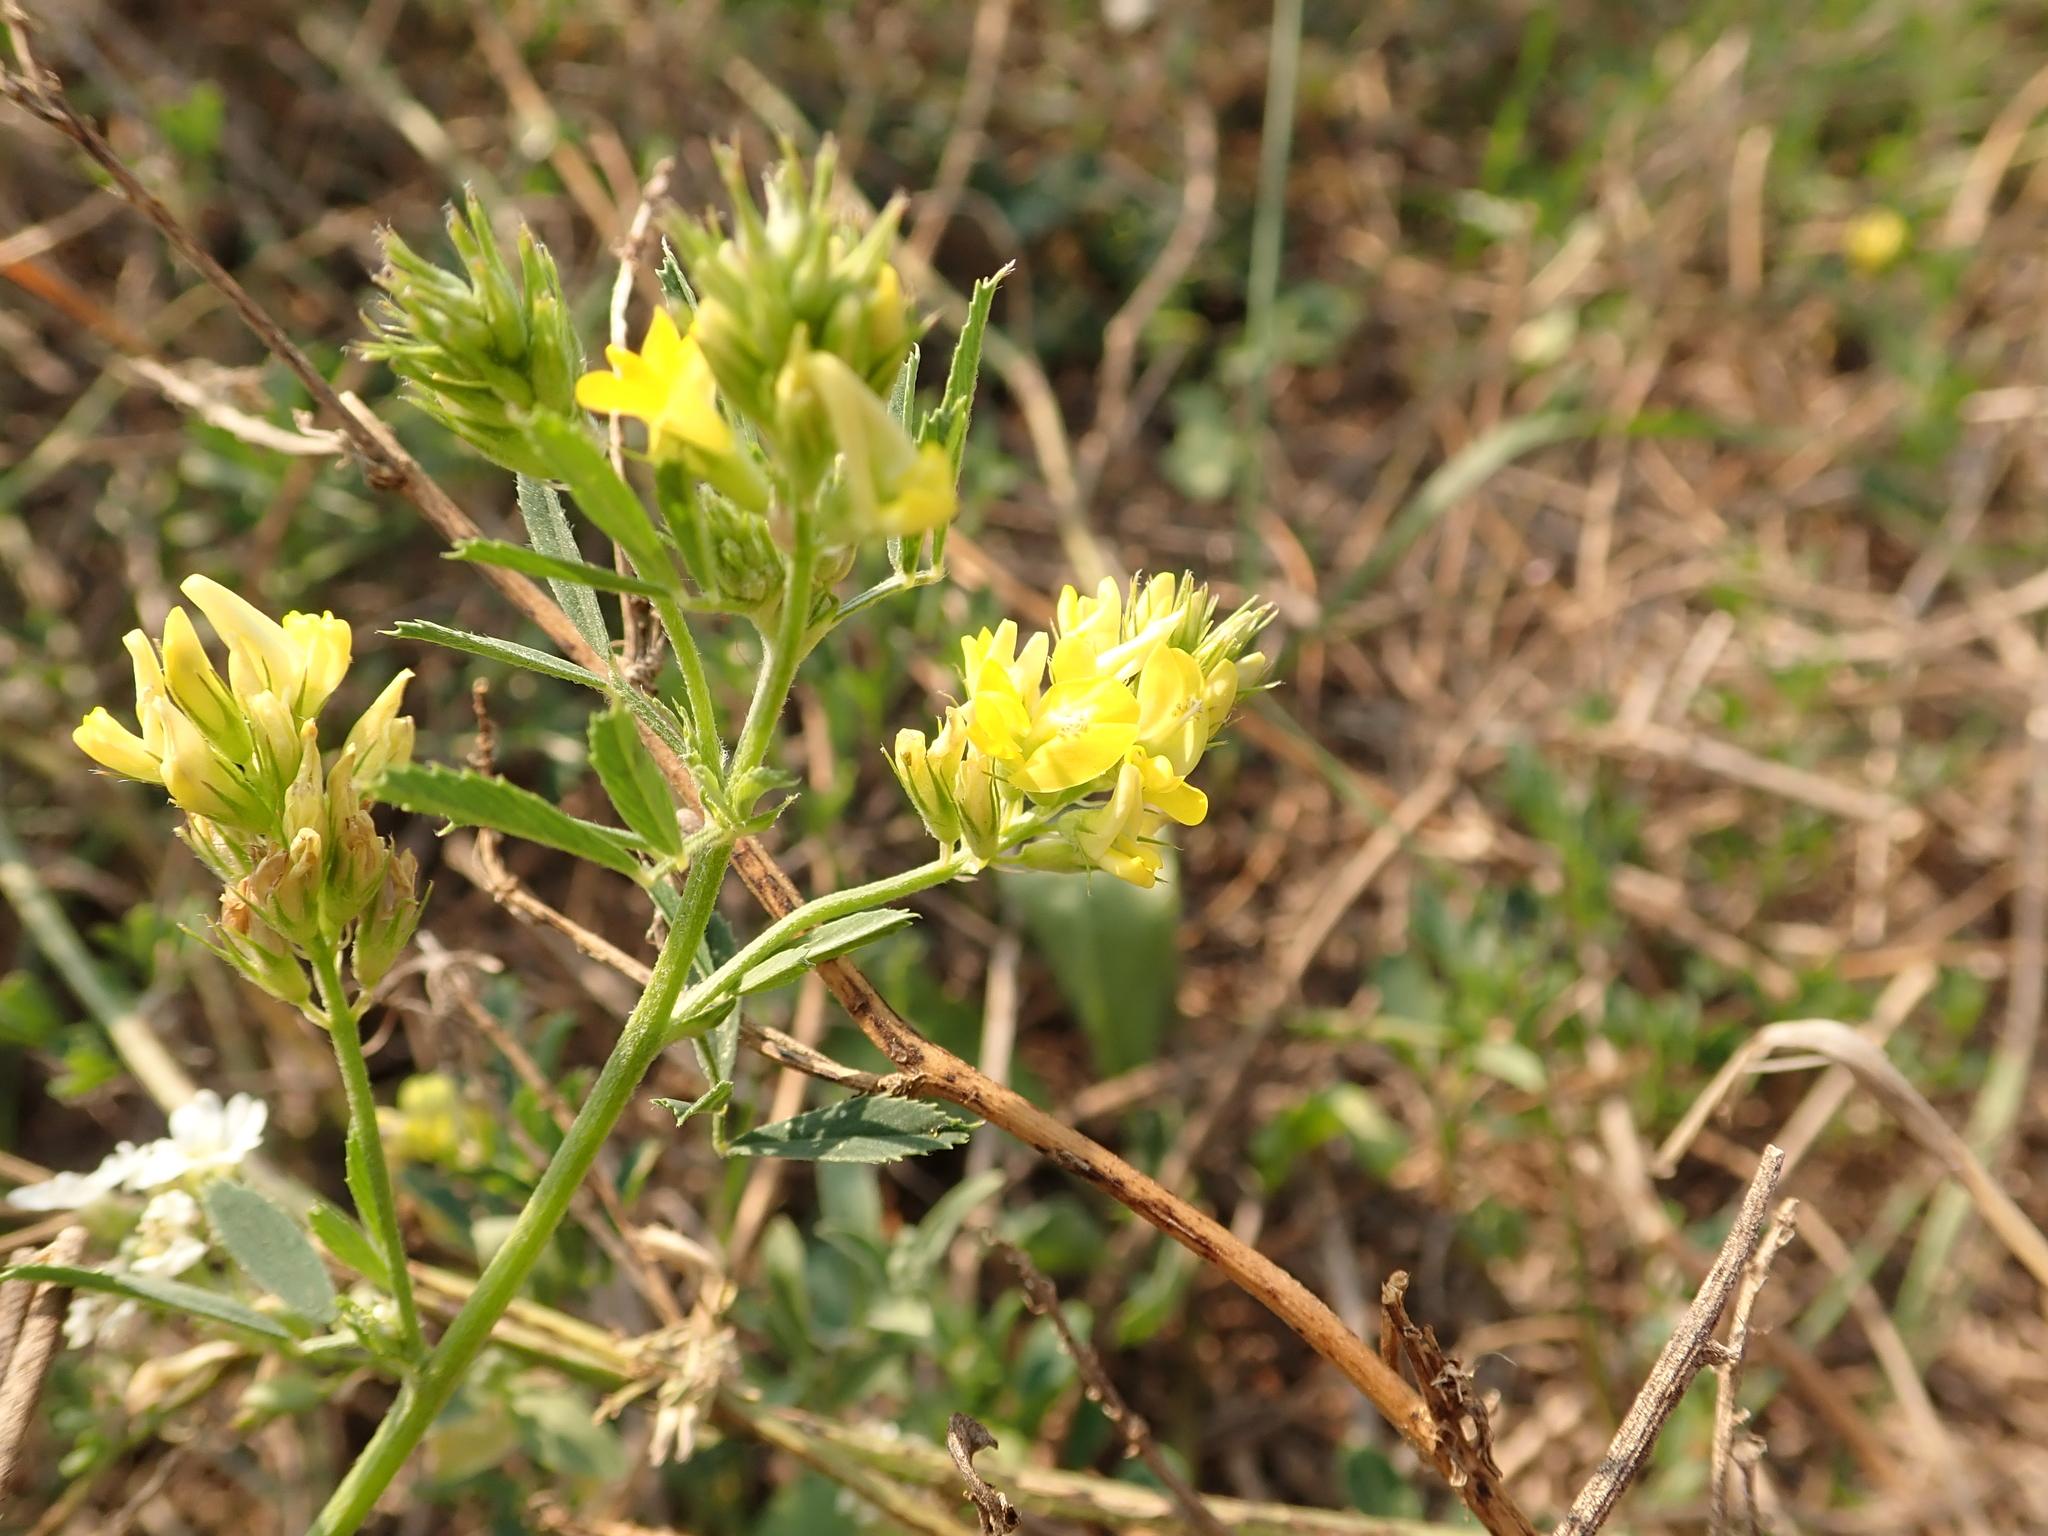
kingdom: Plantae
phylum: Tracheophyta
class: Magnoliopsida
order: Fabales
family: Fabaceae
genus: Medicago
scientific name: Medicago falcata
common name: Sickle medick
